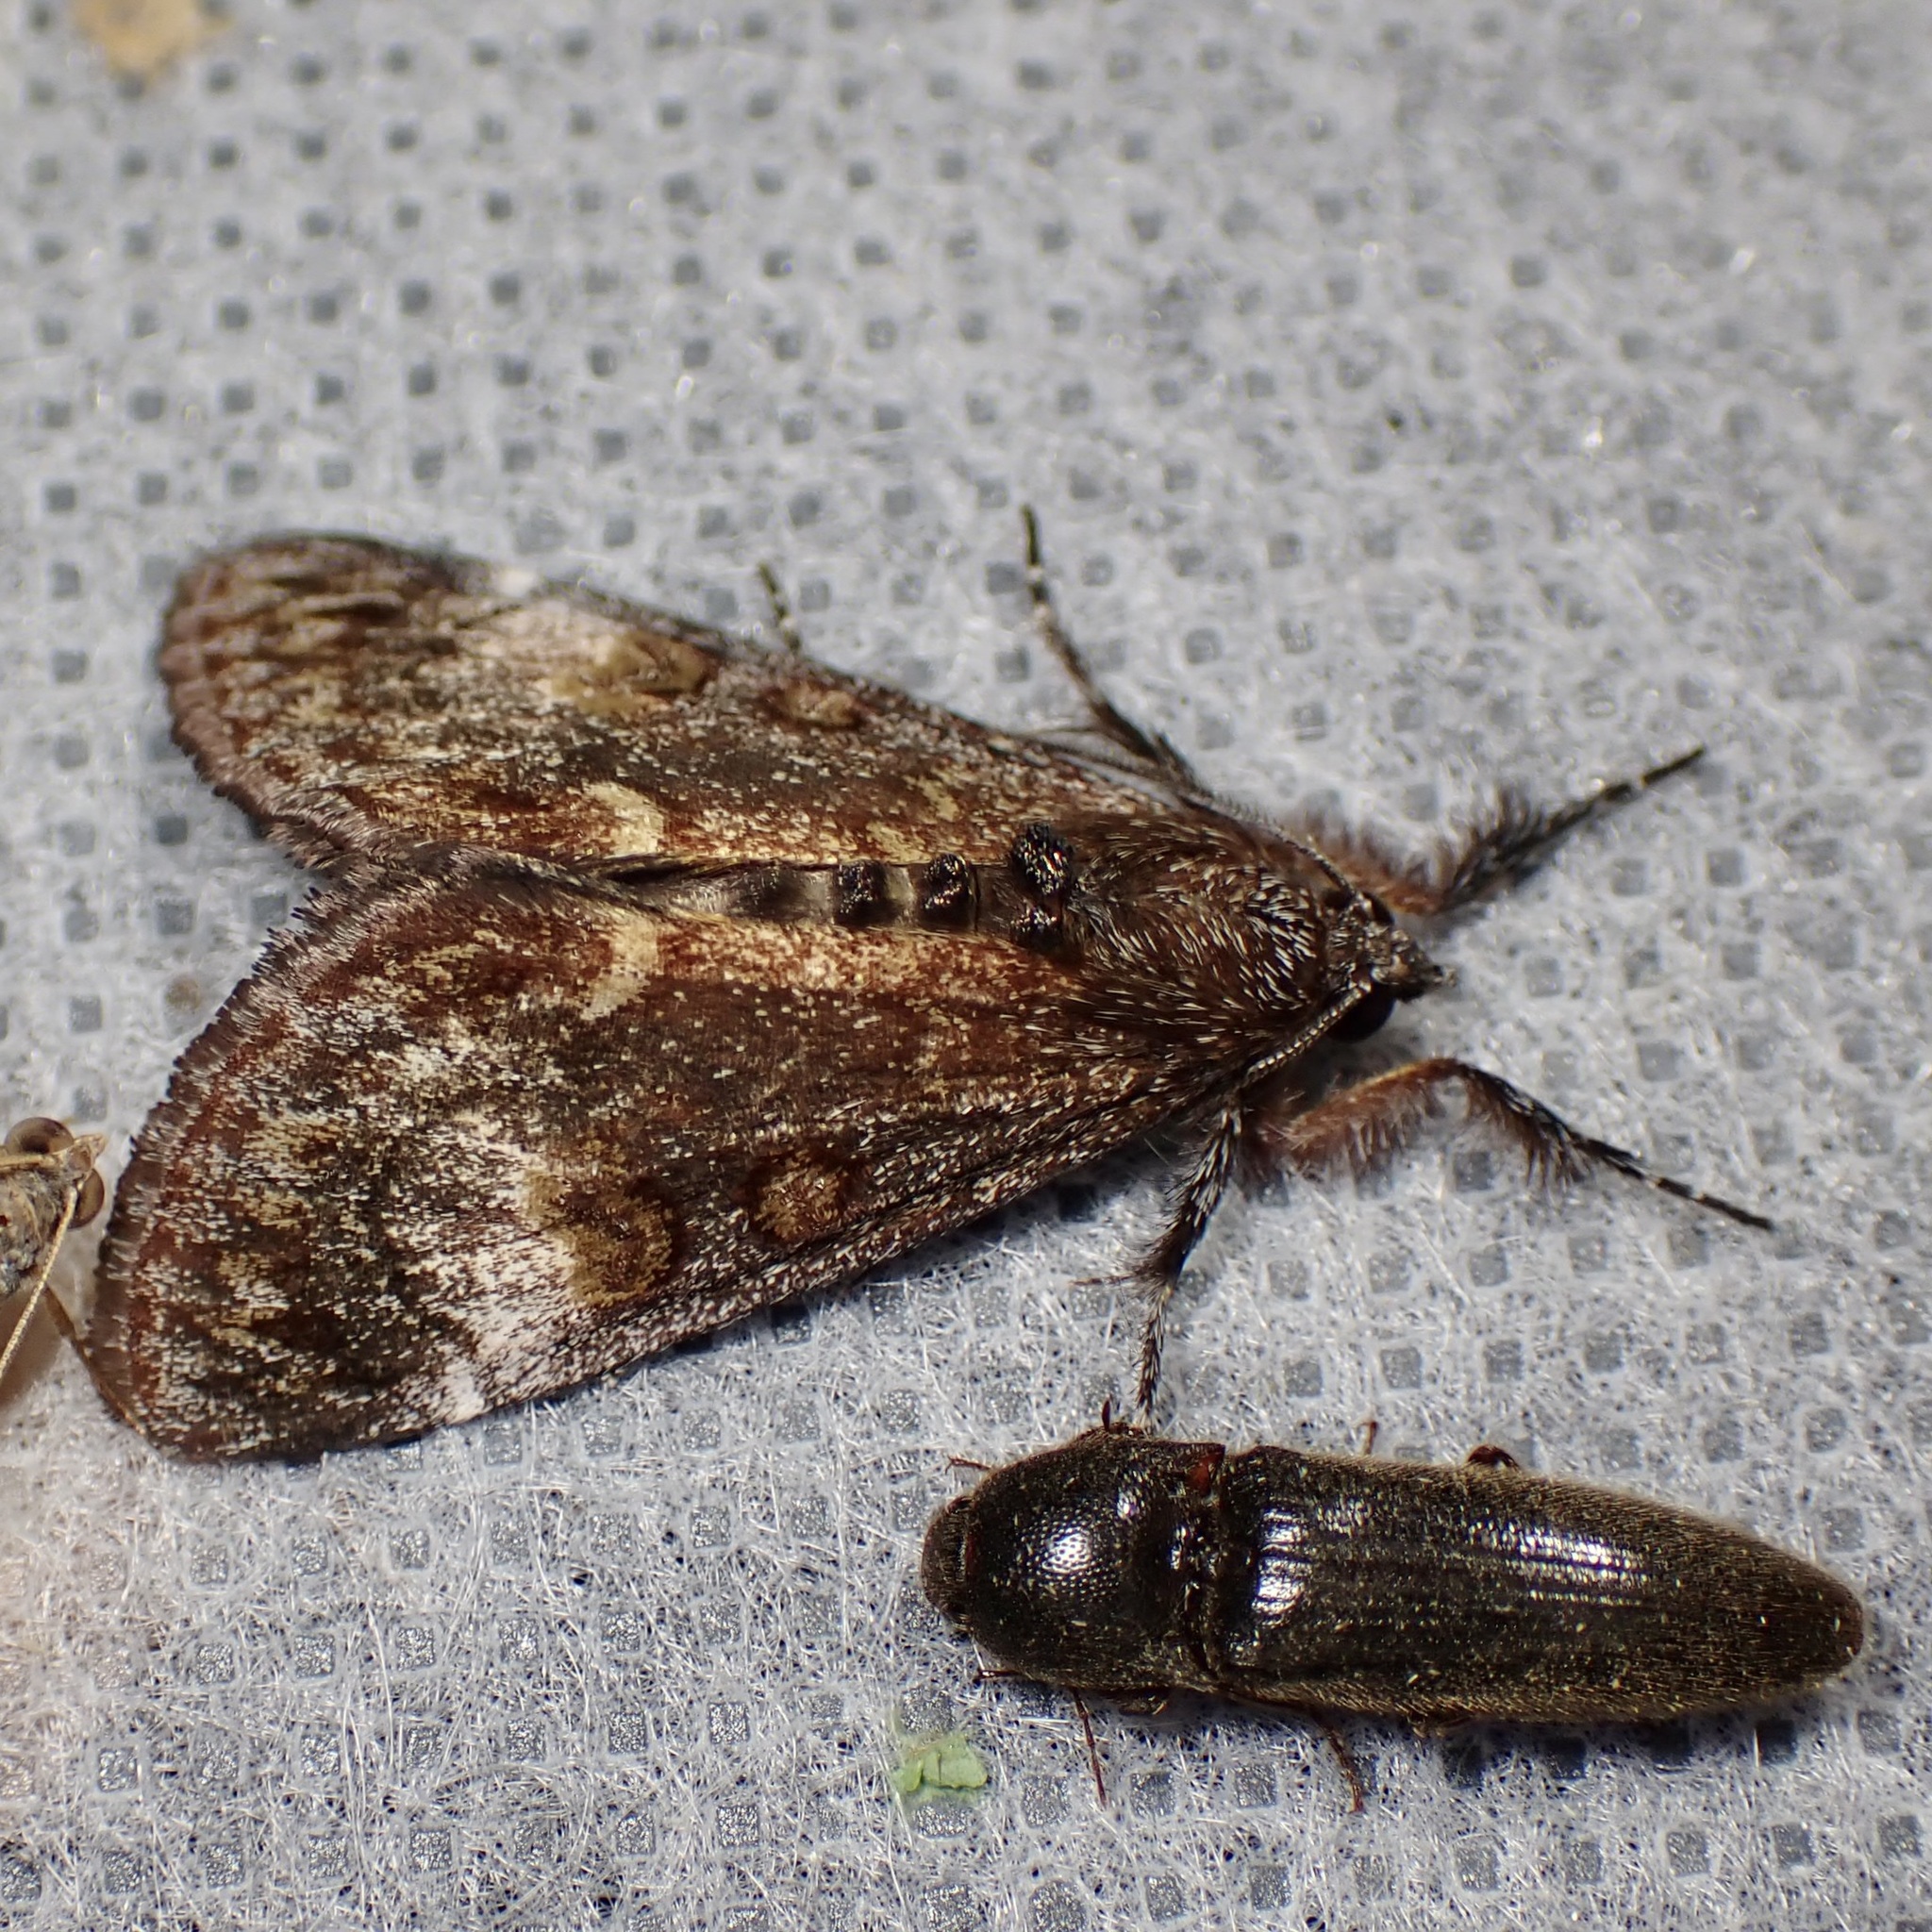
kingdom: Animalia
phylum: Arthropoda
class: Insecta
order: Lepidoptera
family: Noctuidae
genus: Gerra
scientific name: Gerra sevorsa
